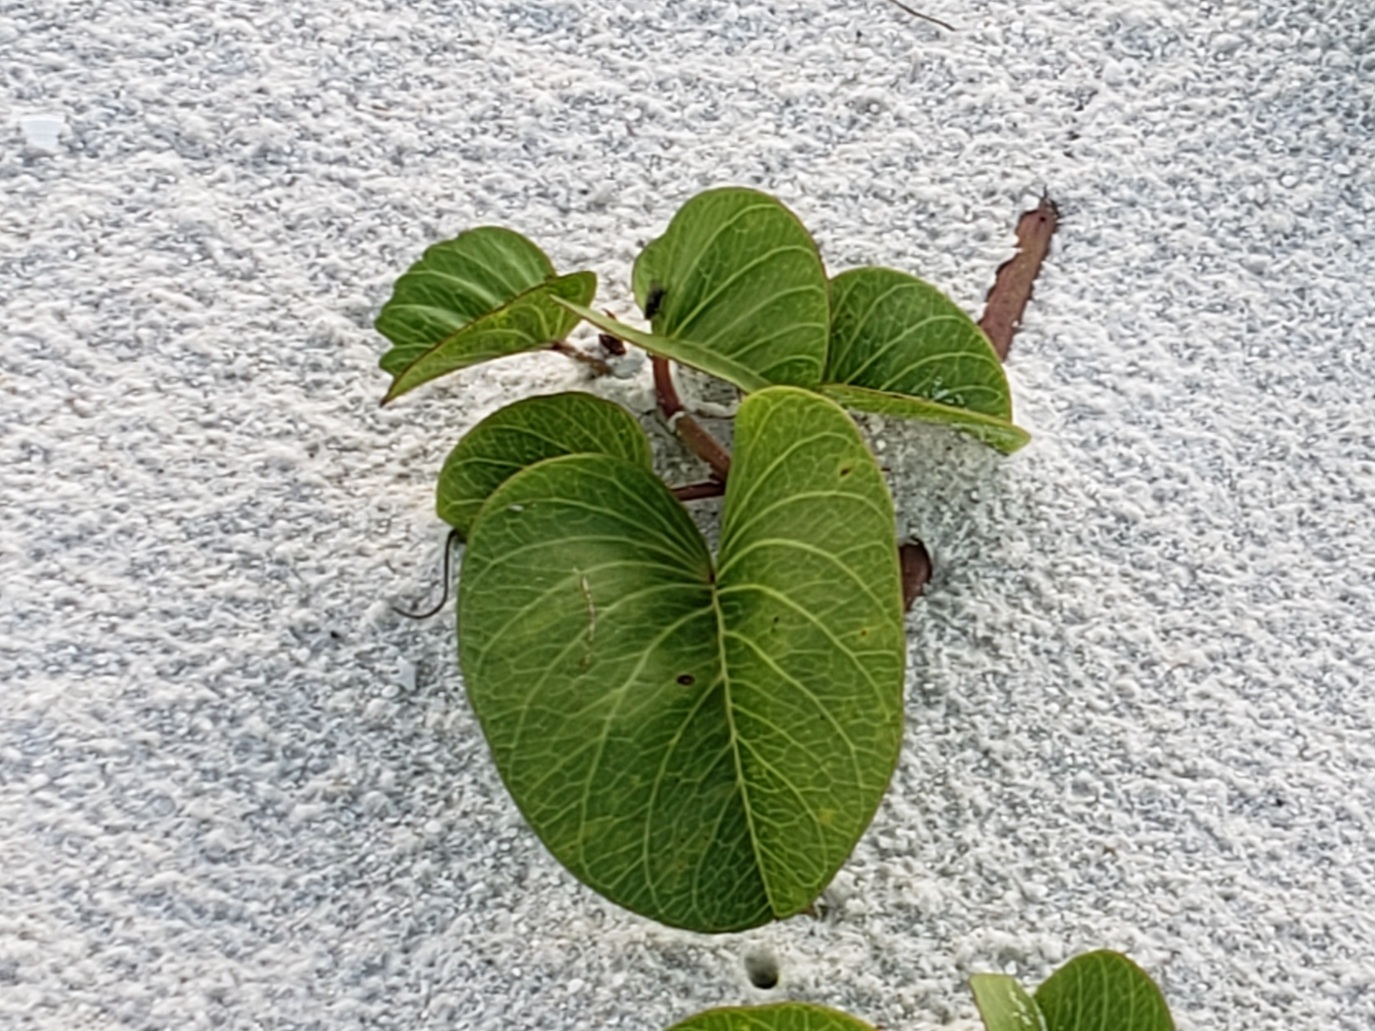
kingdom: Plantae
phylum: Tracheophyta
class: Magnoliopsida
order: Solanales
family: Convolvulaceae
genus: Ipomoea
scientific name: Ipomoea pes-caprae
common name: Beach morning glory
